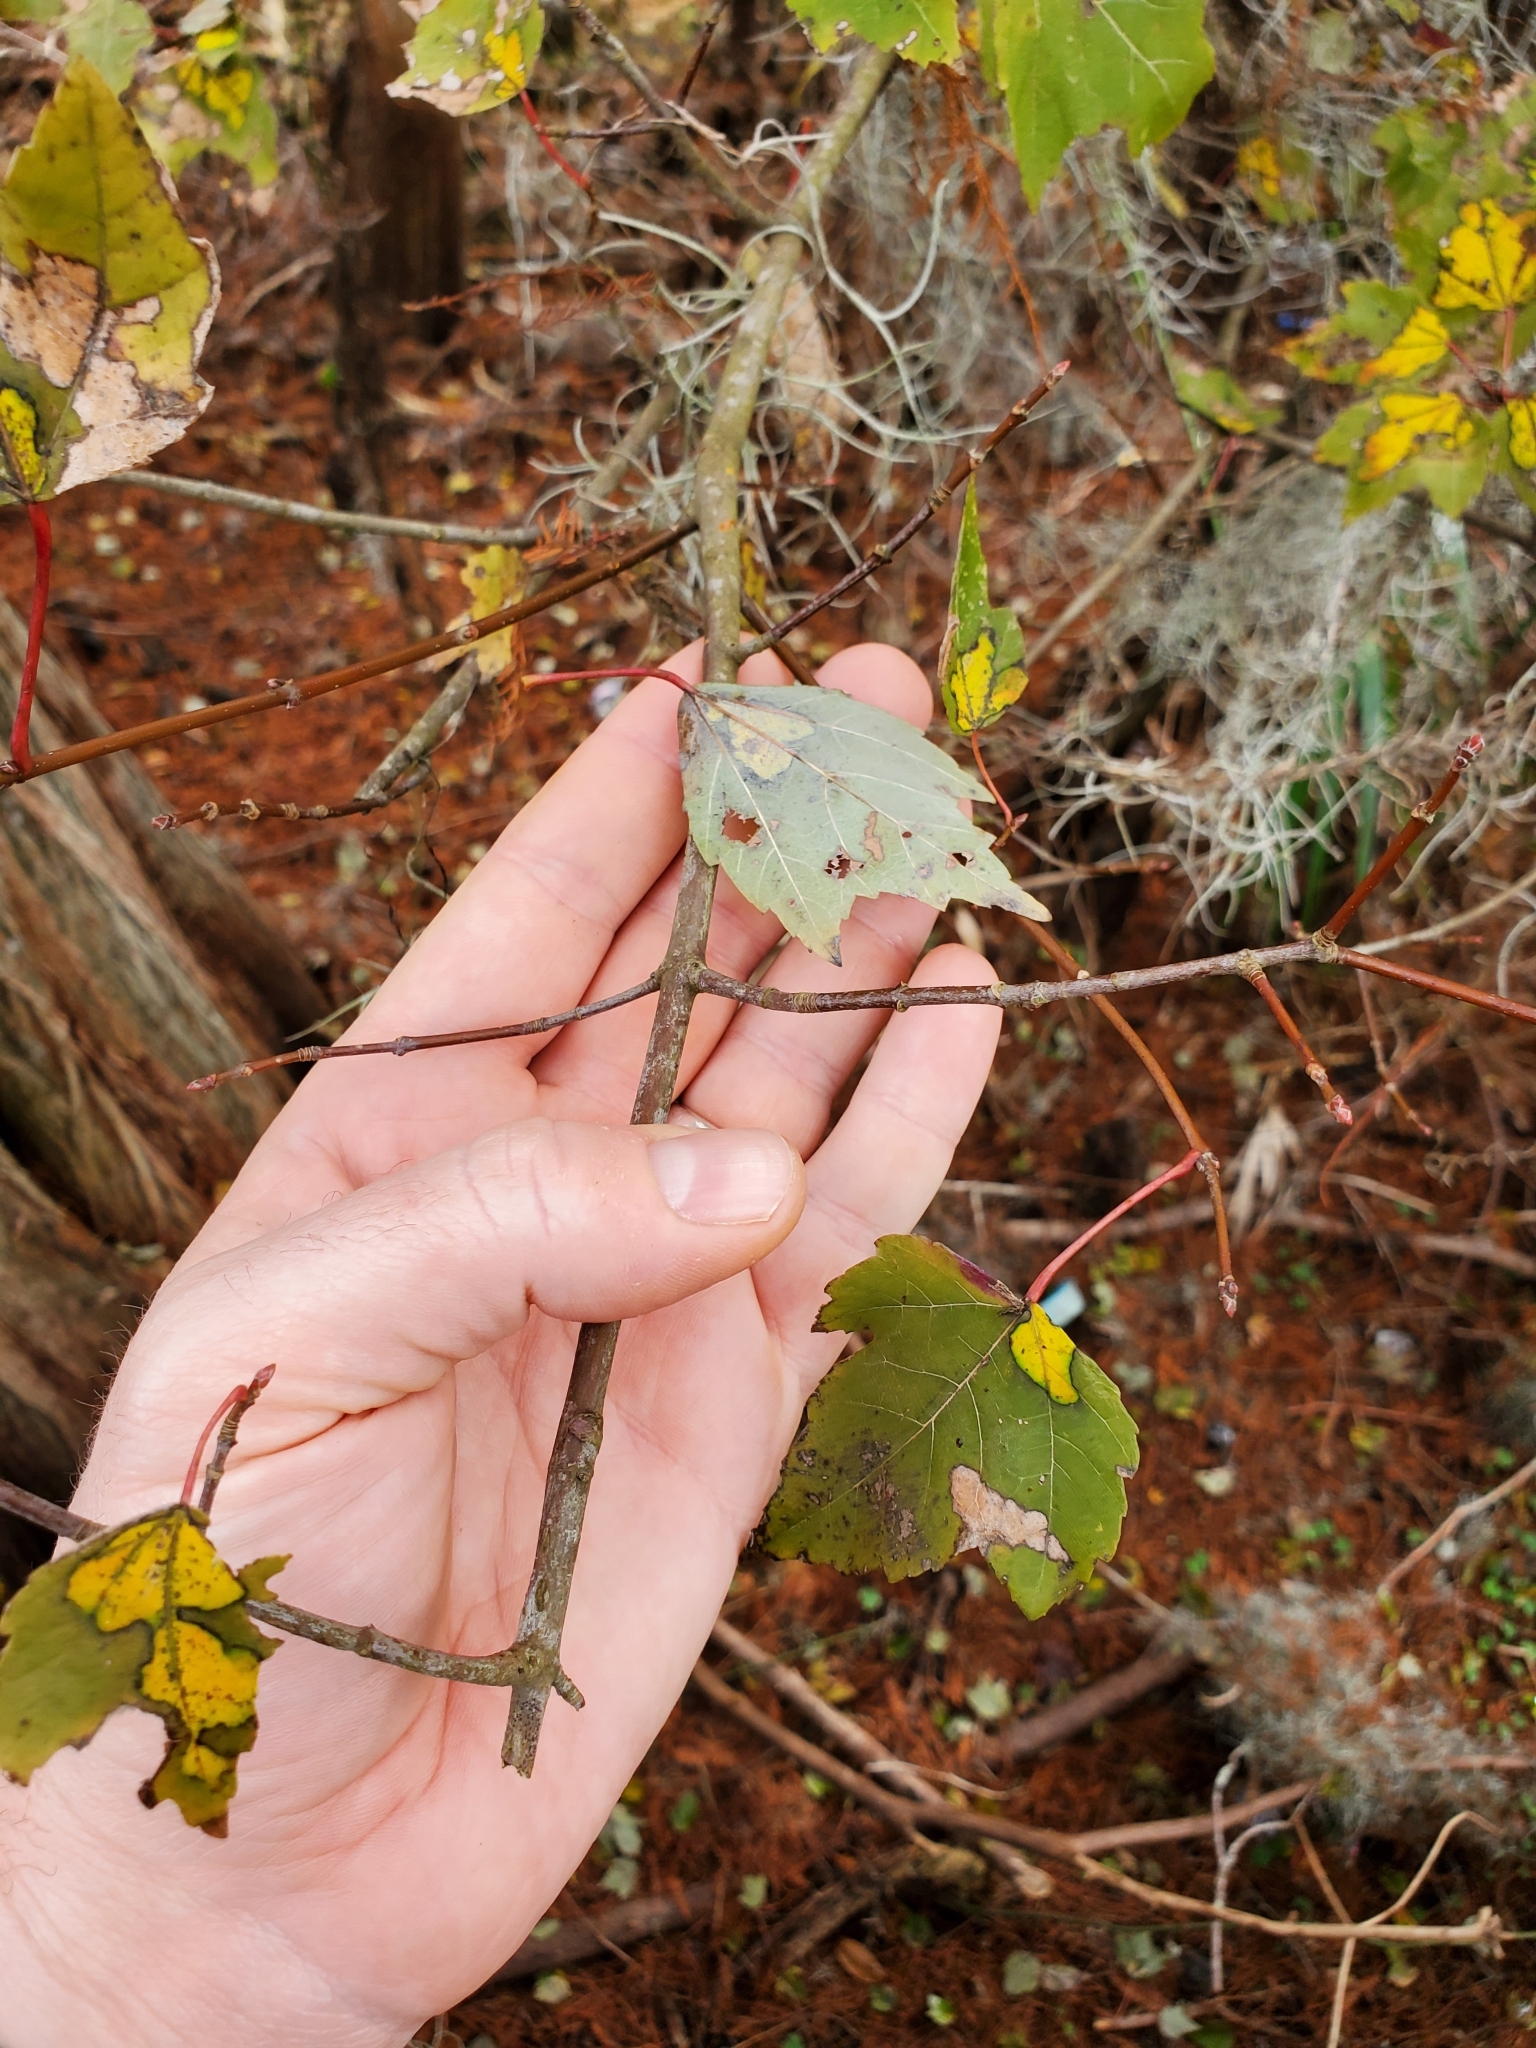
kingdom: Plantae
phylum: Tracheophyta
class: Magnoliopsida
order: Sapindales
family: Sapindaceae
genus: Acer
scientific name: Acer rubrum
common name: Red maple
